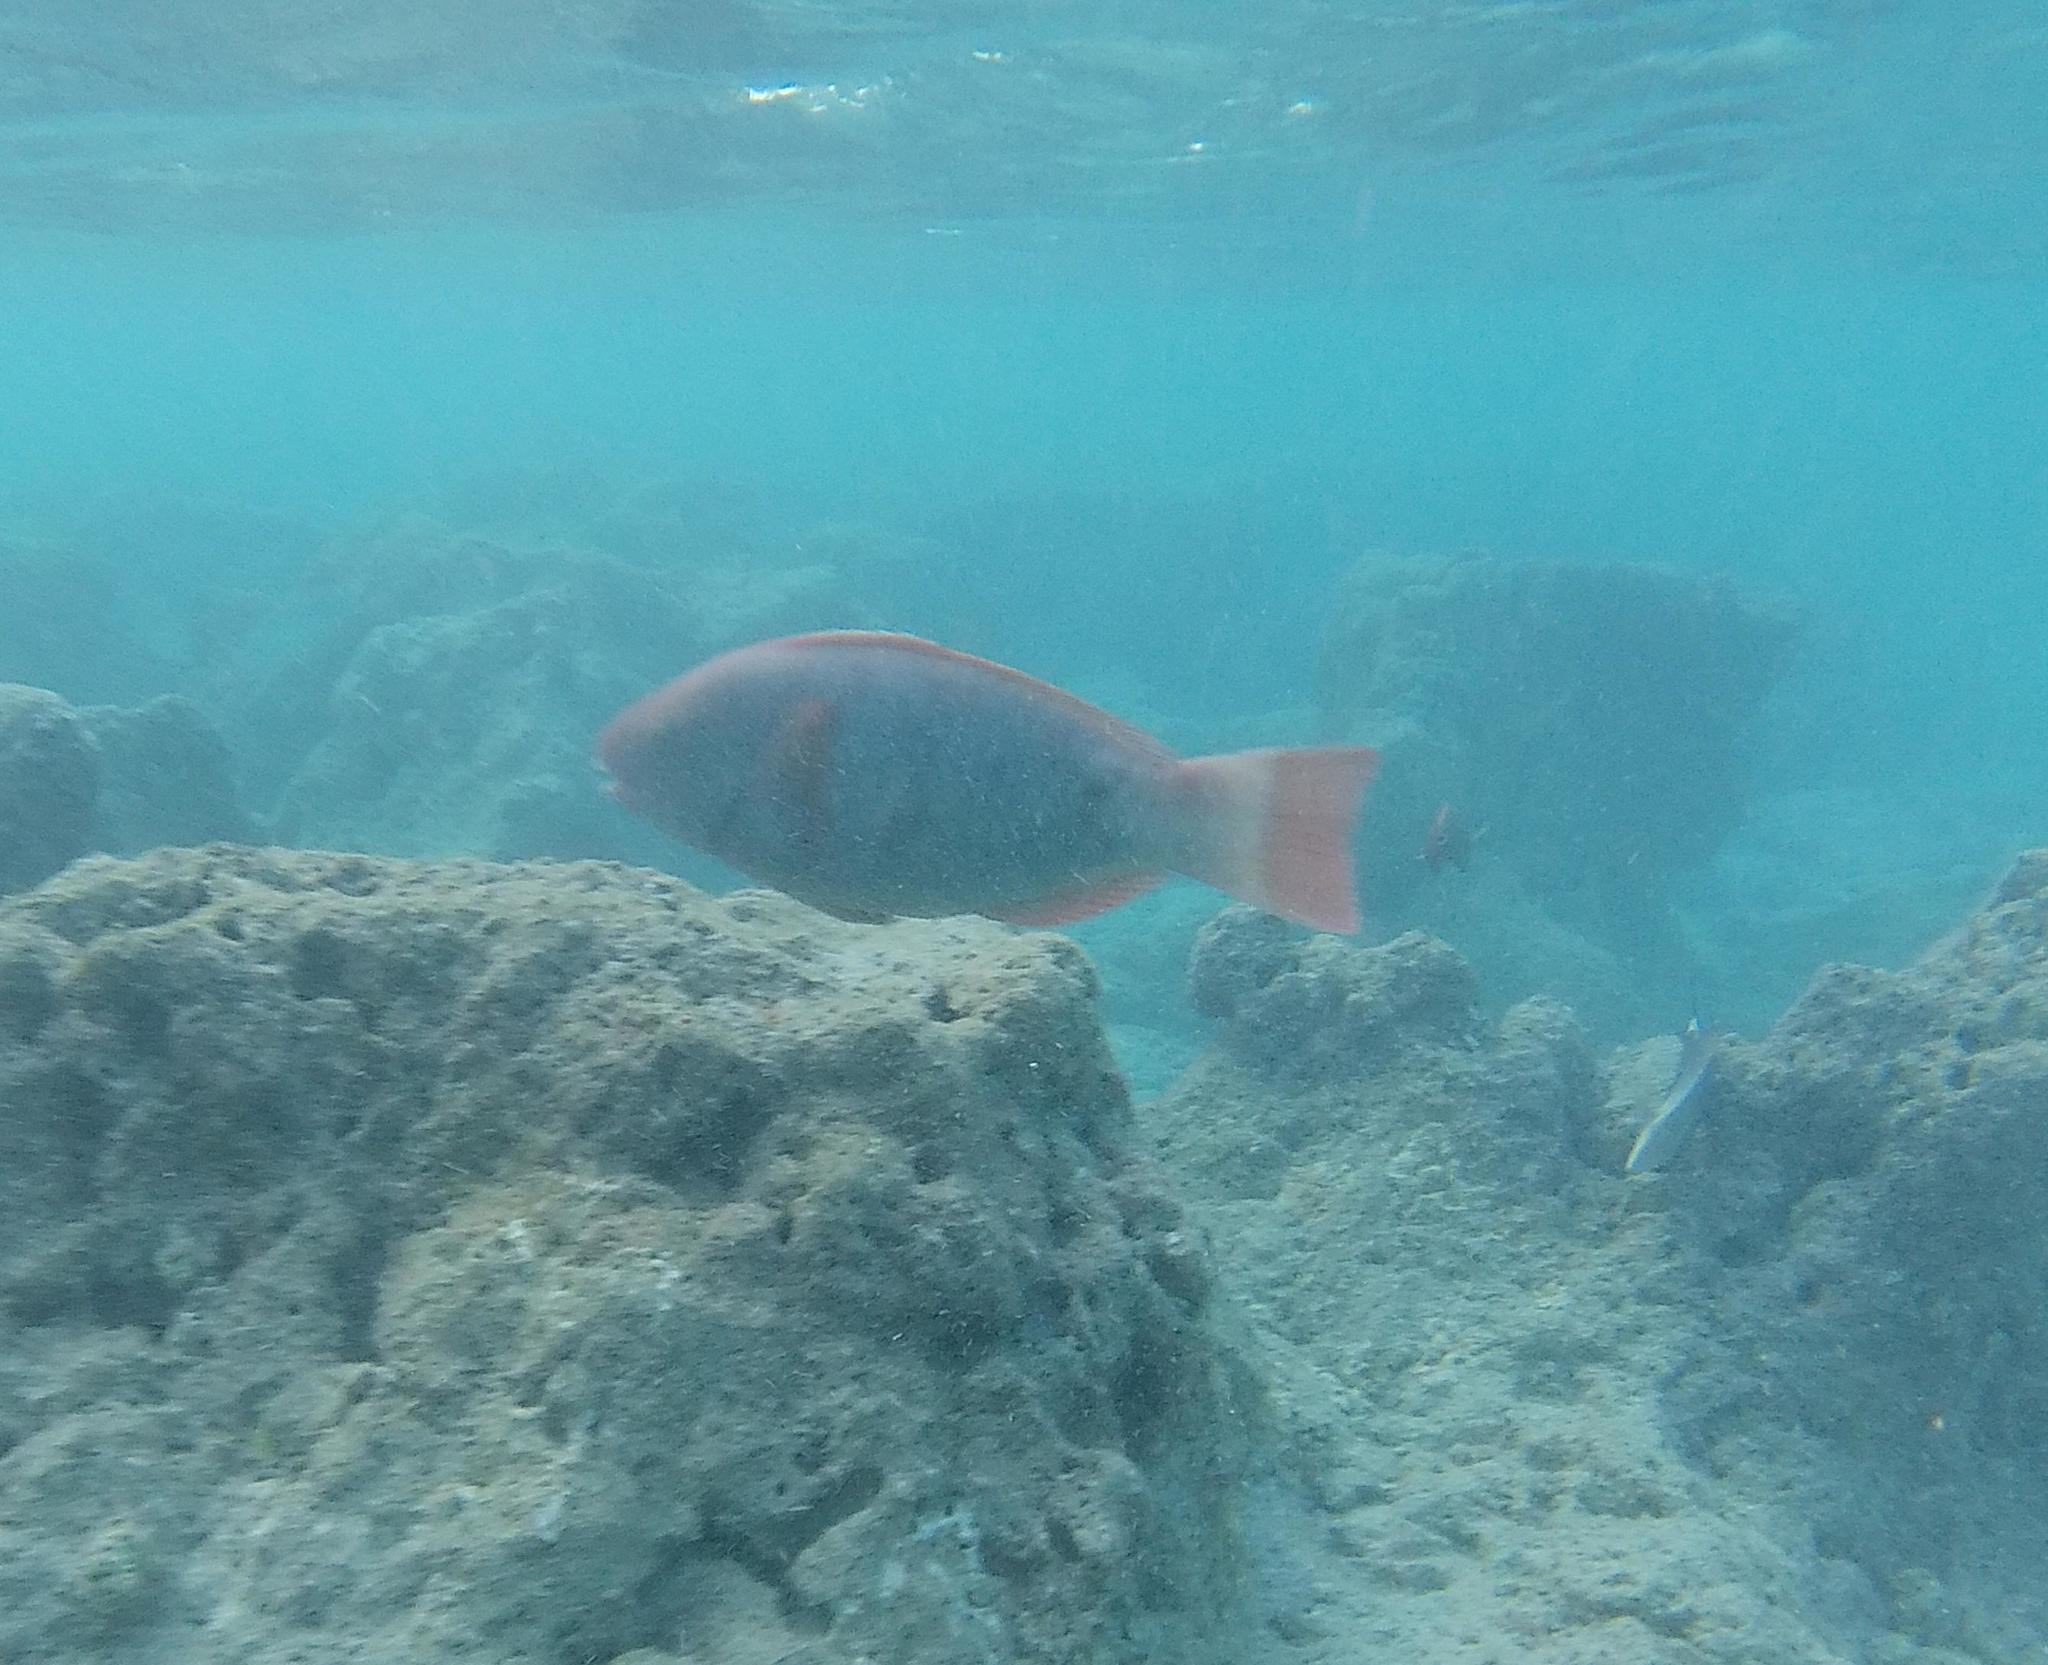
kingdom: Animalia
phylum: Chordata
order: Perciformes
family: Scaridae
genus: Chlorurus
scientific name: Chlorurus perspicillatus
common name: Spectacled parrotfish
